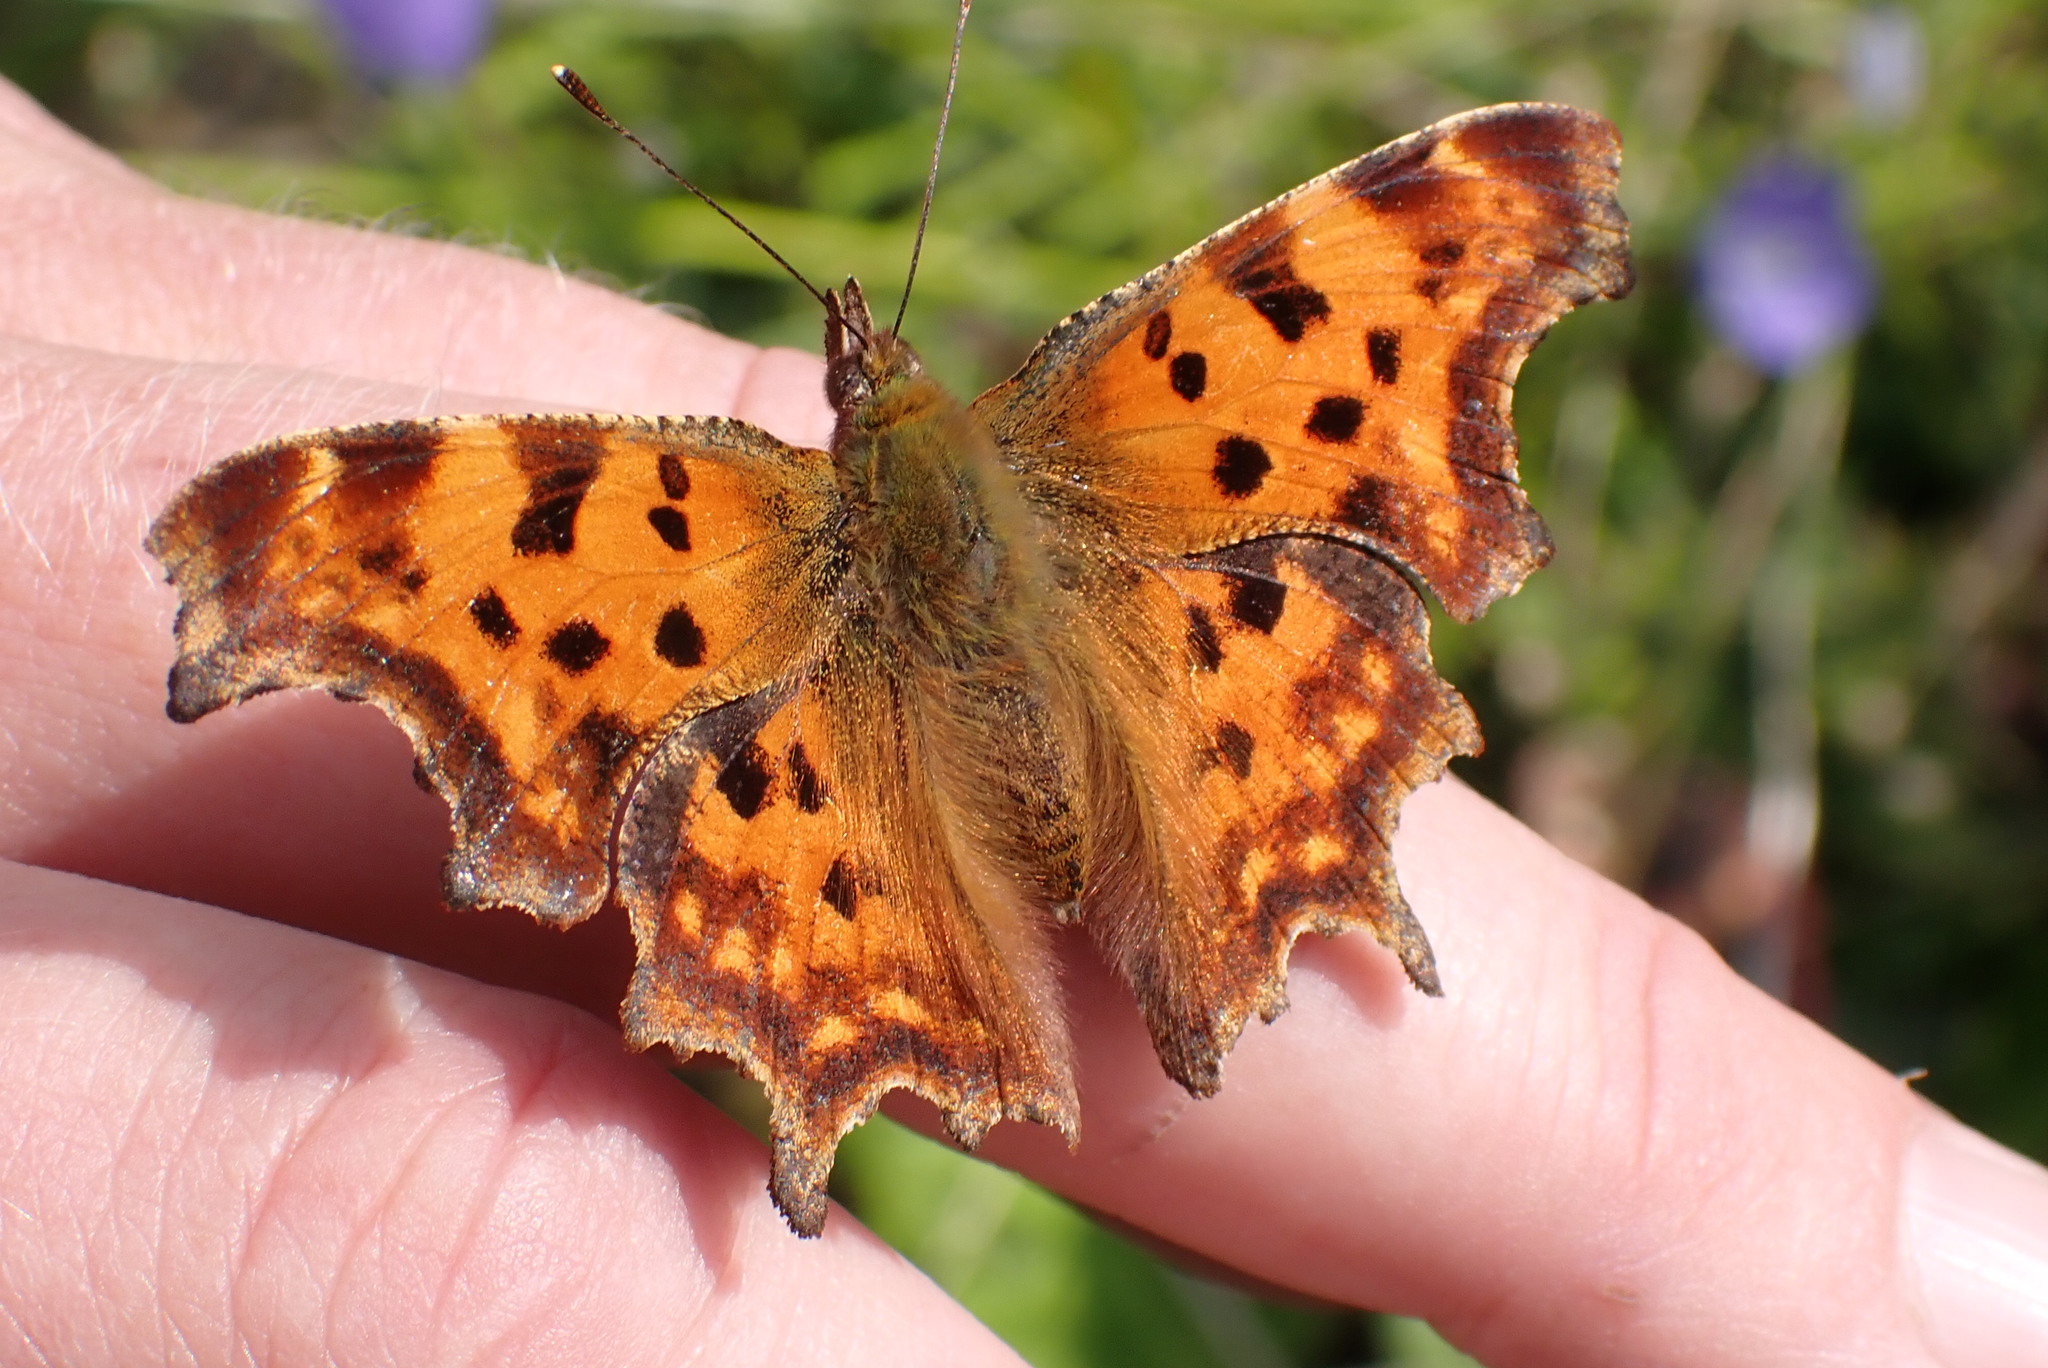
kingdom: Animalia
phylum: Arthropoda
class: Insecta
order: Lepidoptera
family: Nymphalidae
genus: Polygonia
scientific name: Polygonia c-album
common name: Comma
